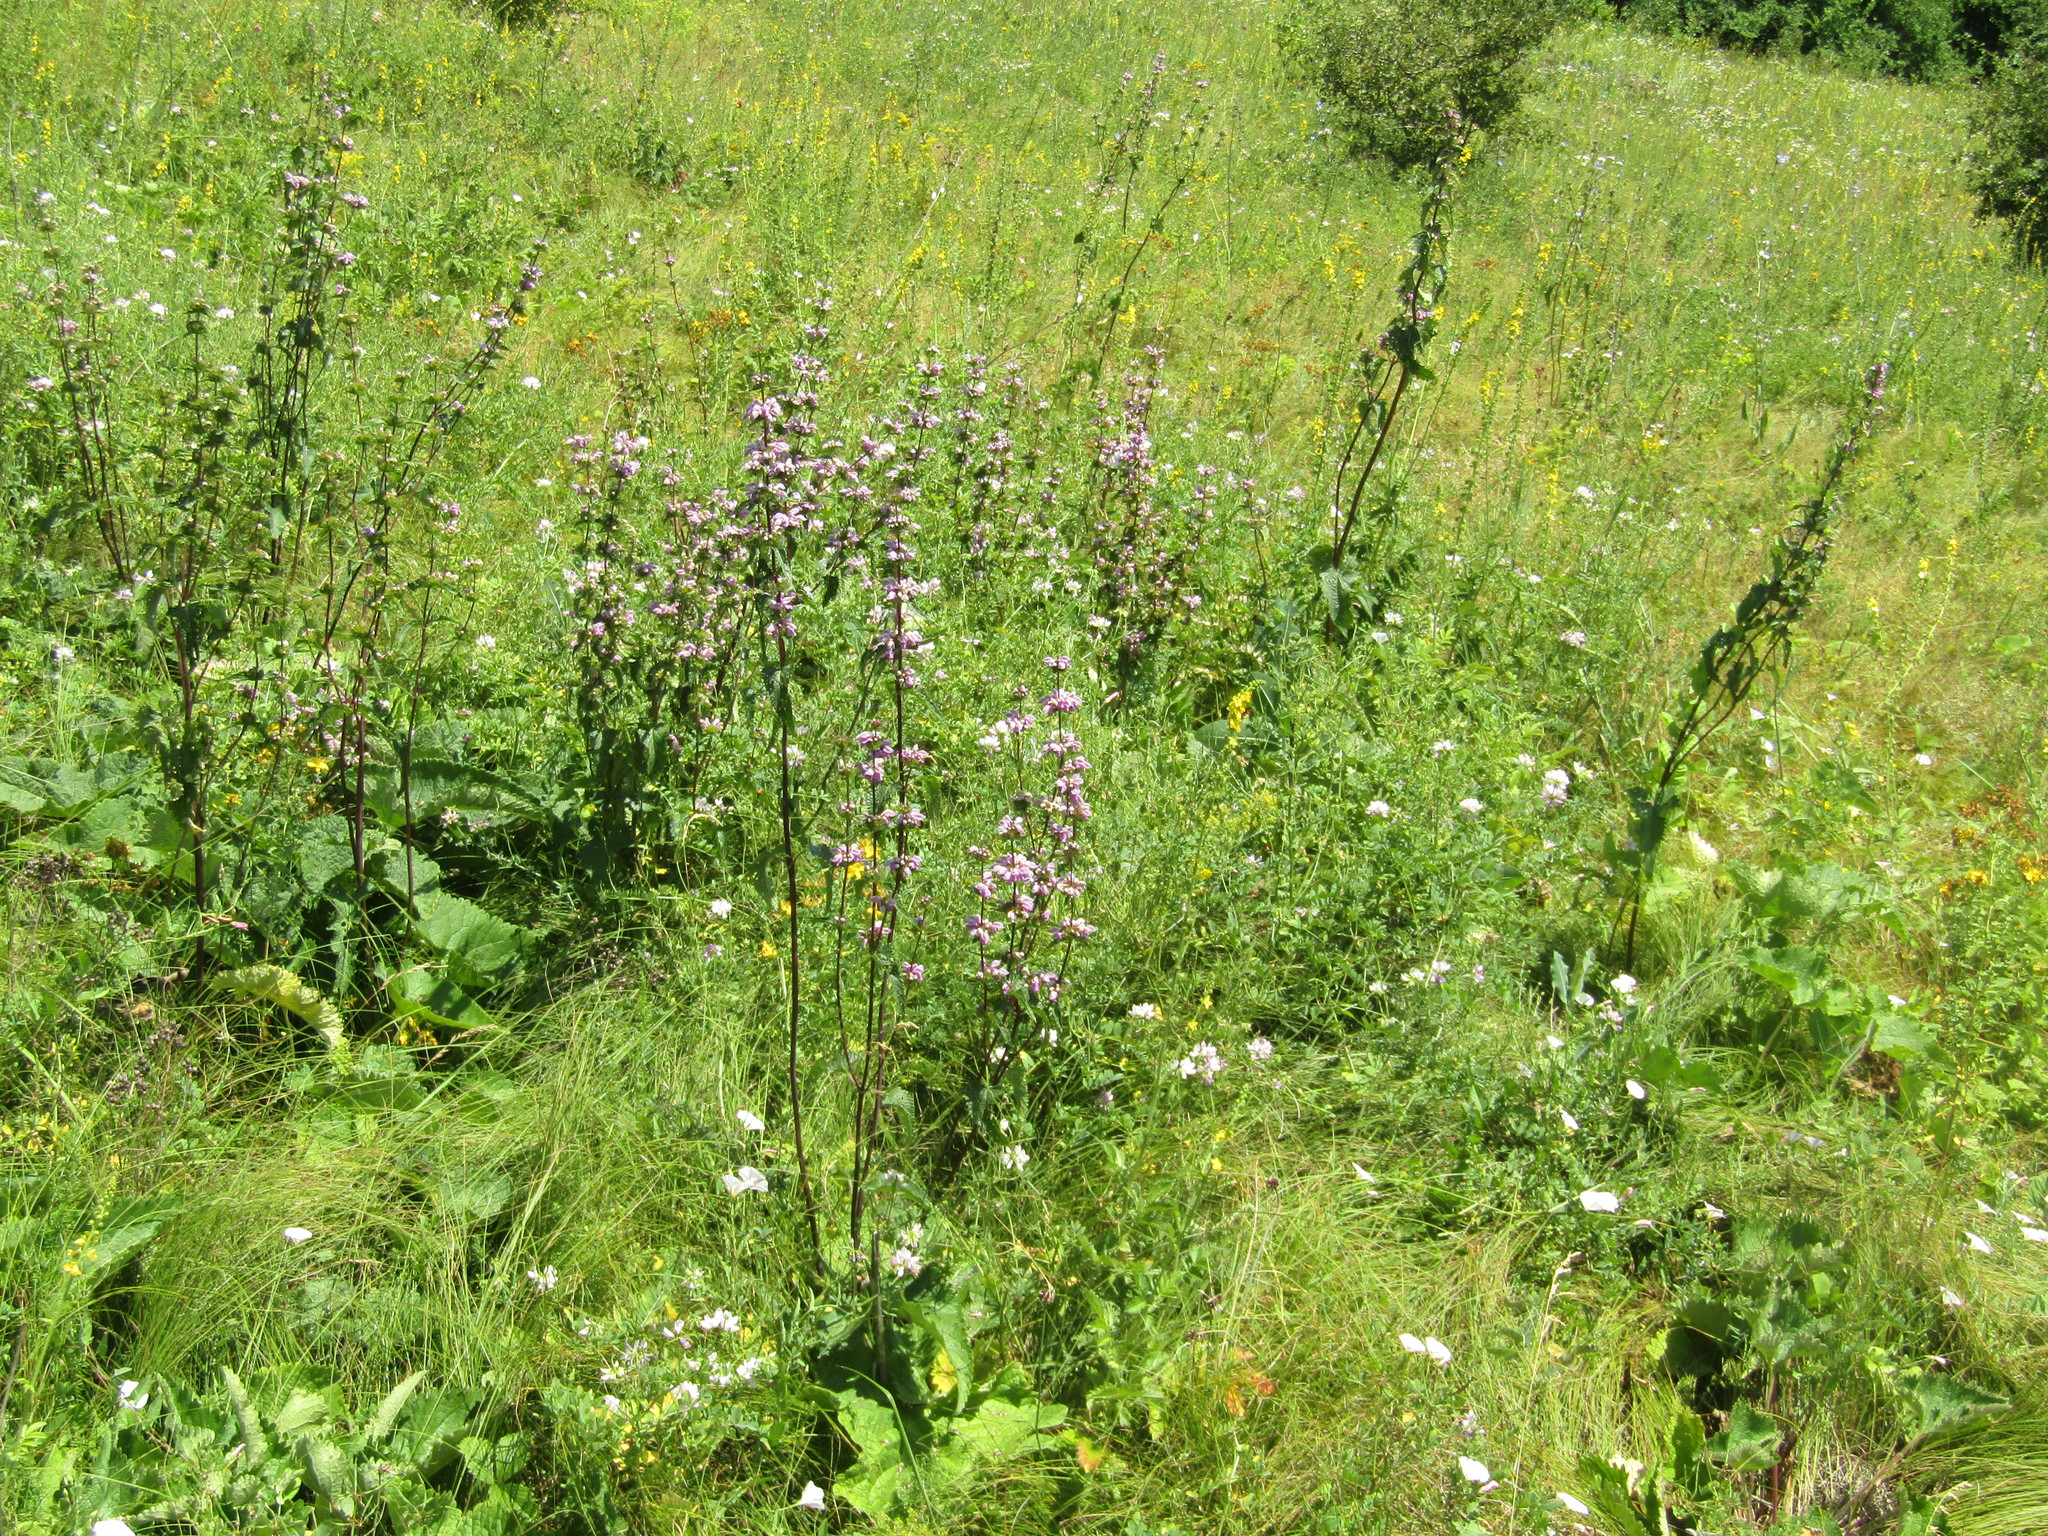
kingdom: Plantae
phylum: Tracheophyta
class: Magnoliopsida
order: Lamiales
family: Lamiaceae
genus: Phlomoides
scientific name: Phlomoides tuberosa
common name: Tuberous jerusalem sage
